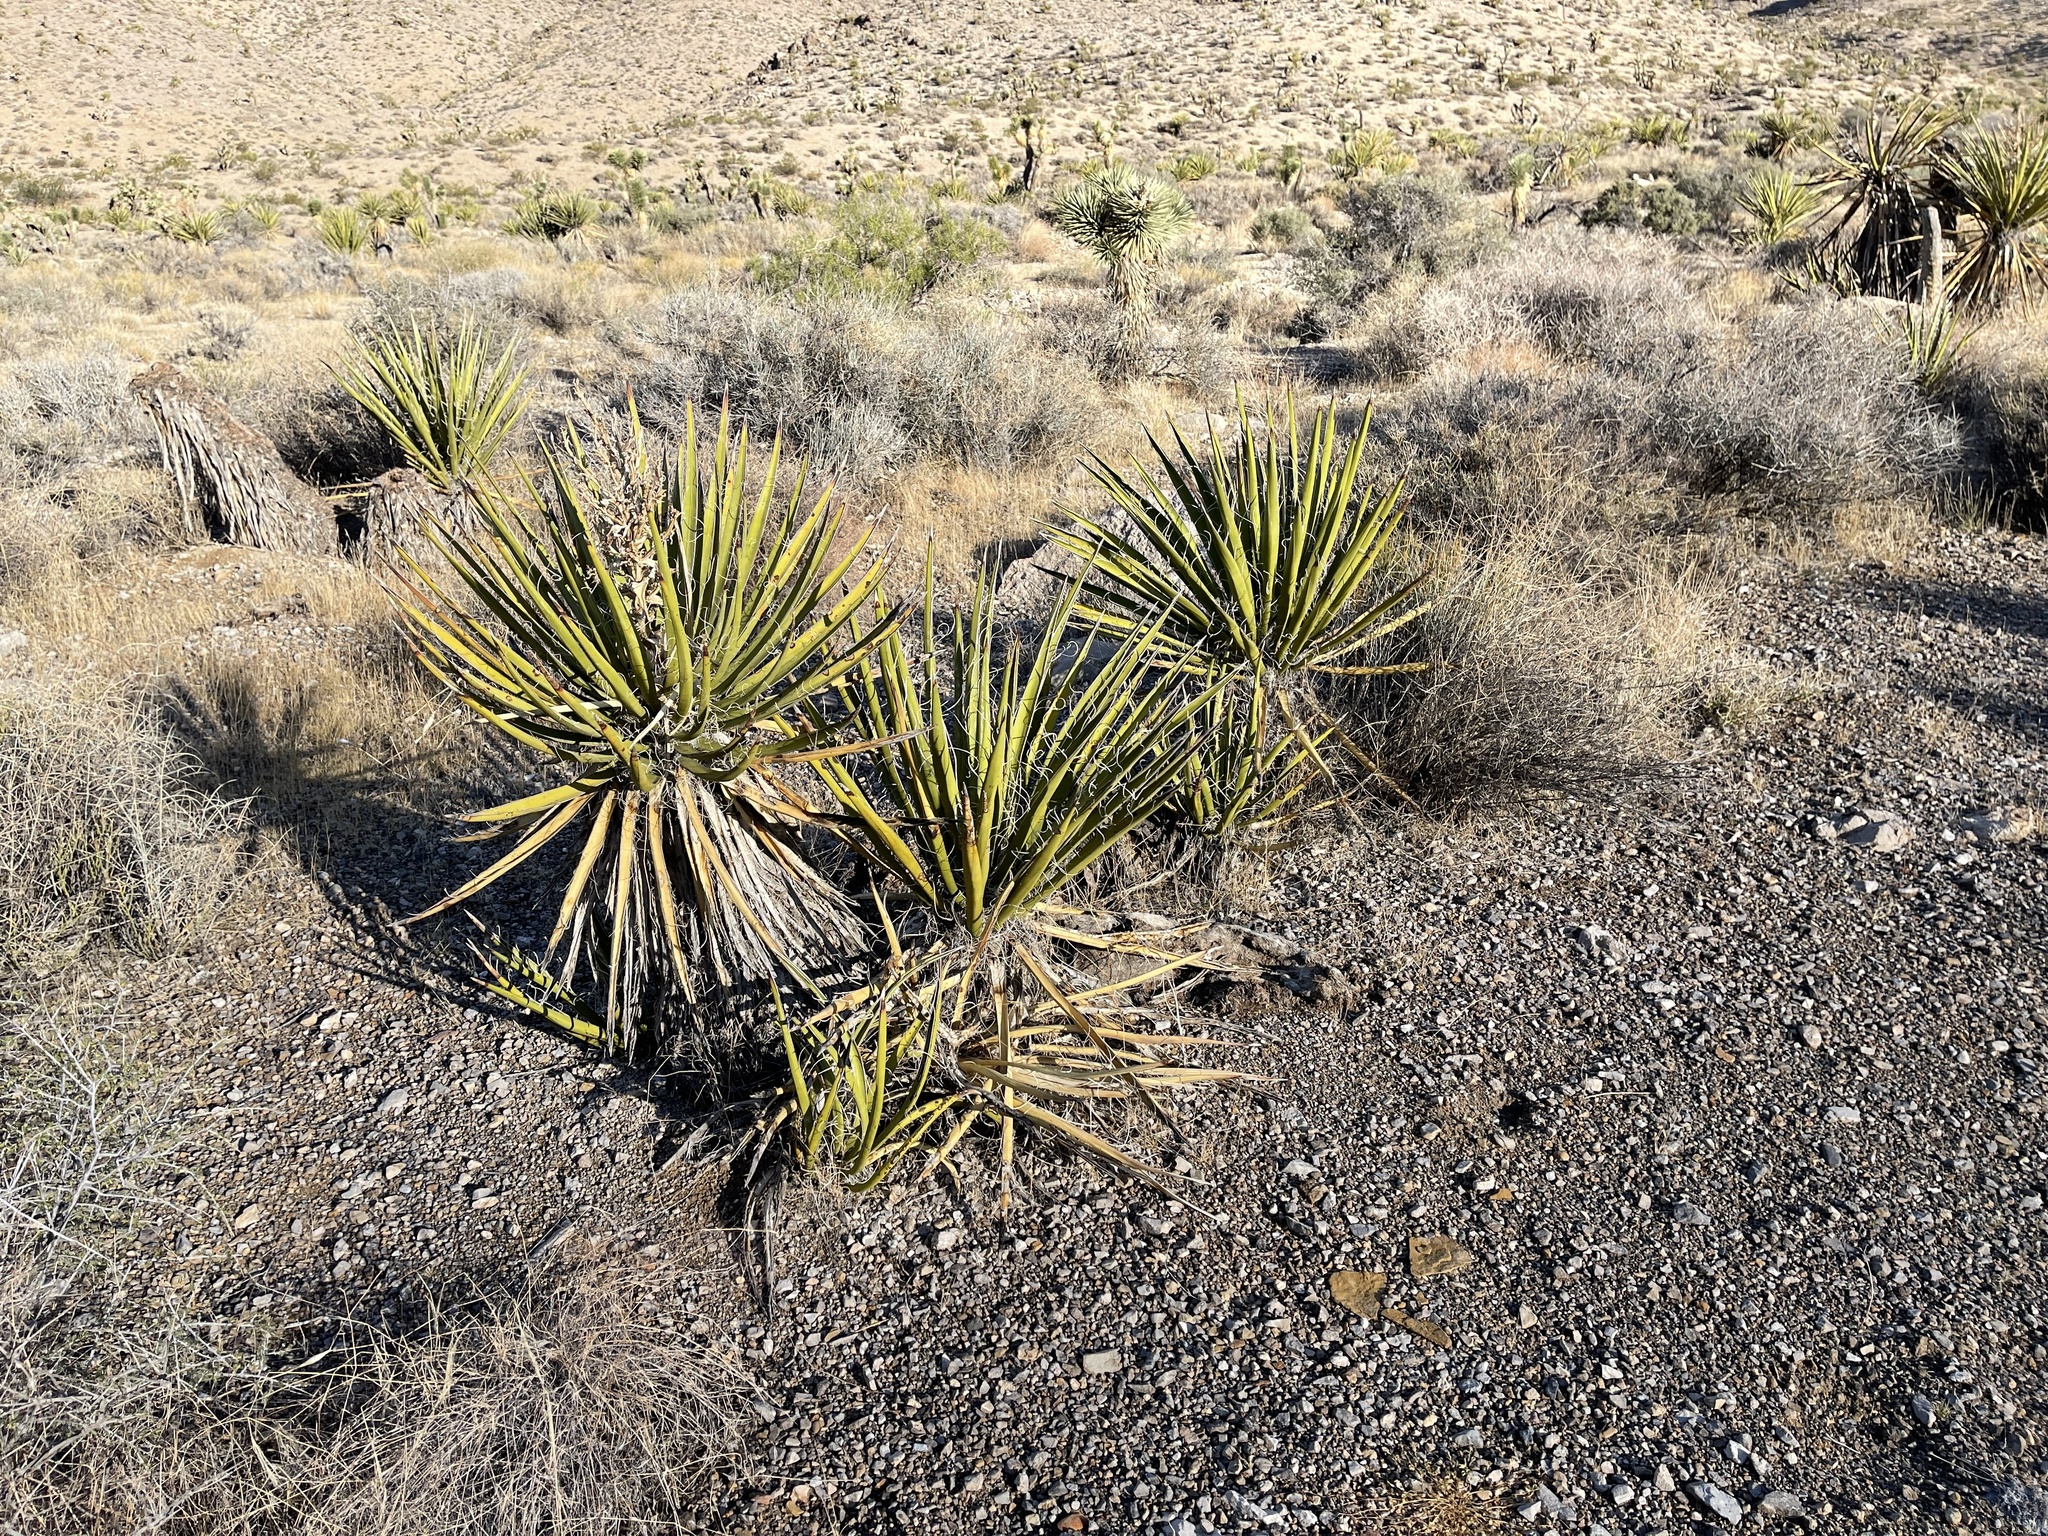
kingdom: Plantae
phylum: Tracheophyta
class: Liliopsida
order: Asparagales
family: Asparagaceae
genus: Yucca
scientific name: Yucca schidigera
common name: Mojave yucca
